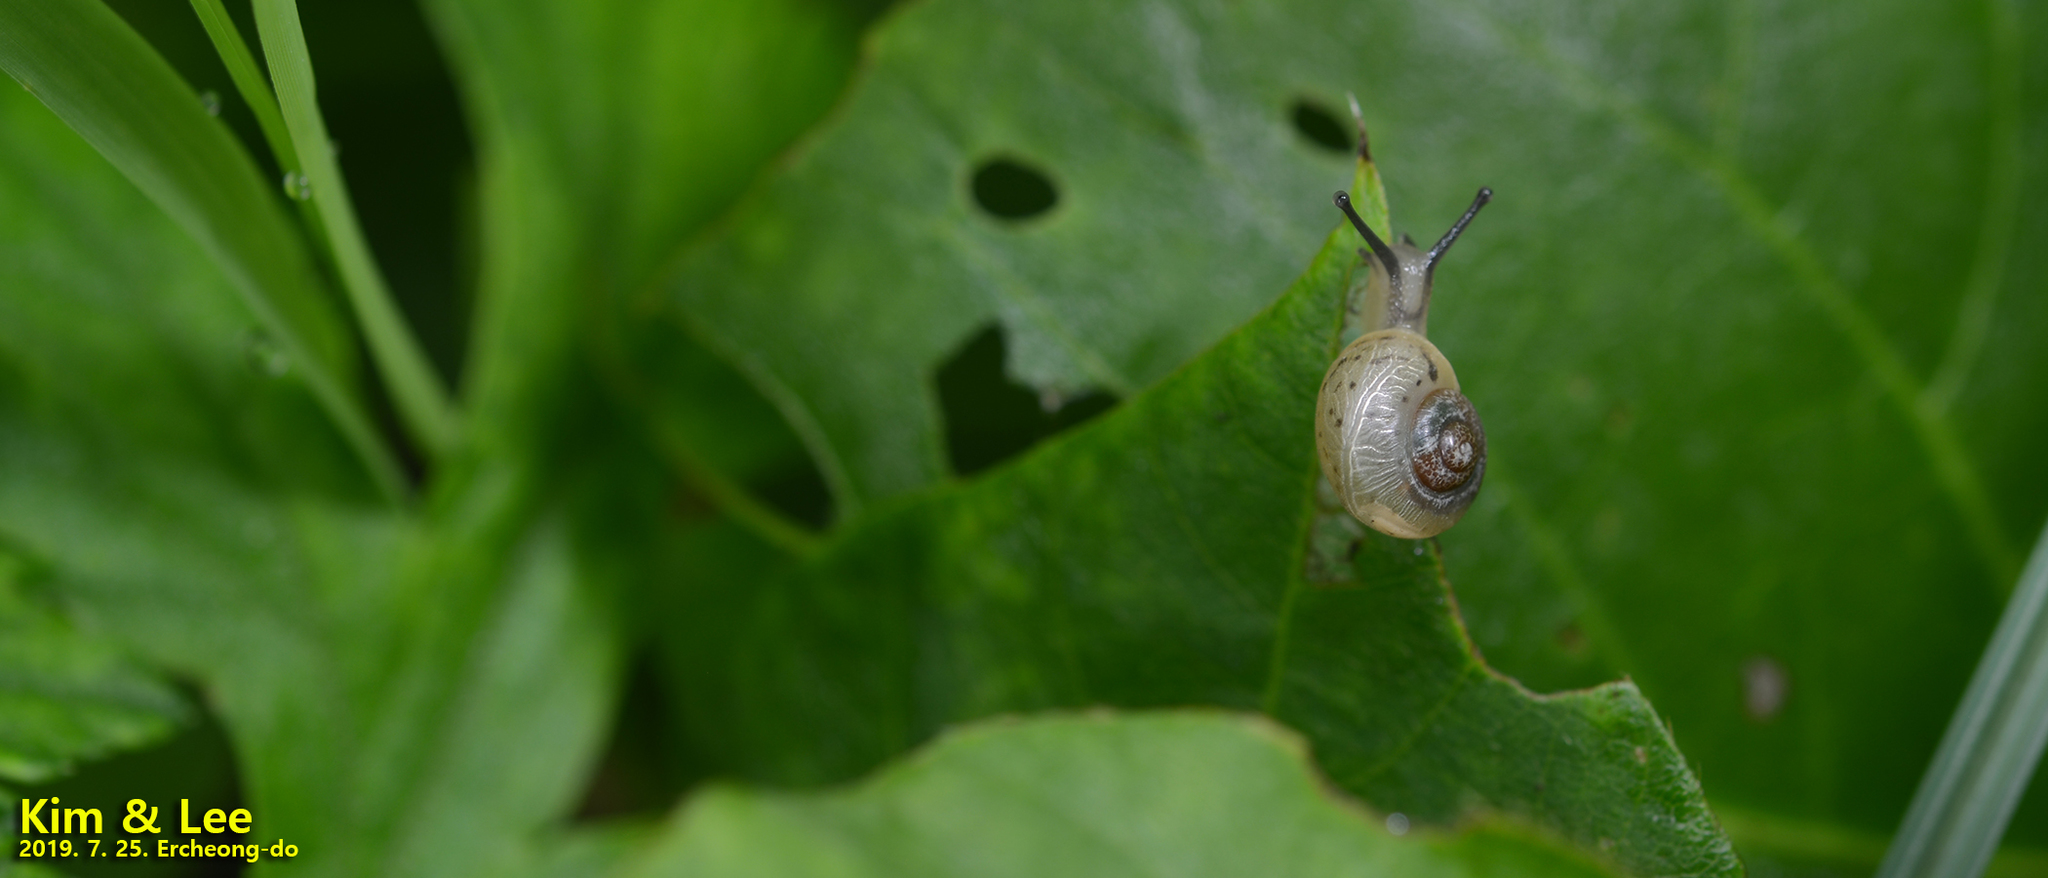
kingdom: Animalia
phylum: Mollusca
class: Gastropoda
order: Stylommatophora
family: Camaenidae
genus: Acusta
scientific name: Acusta redfieldi
